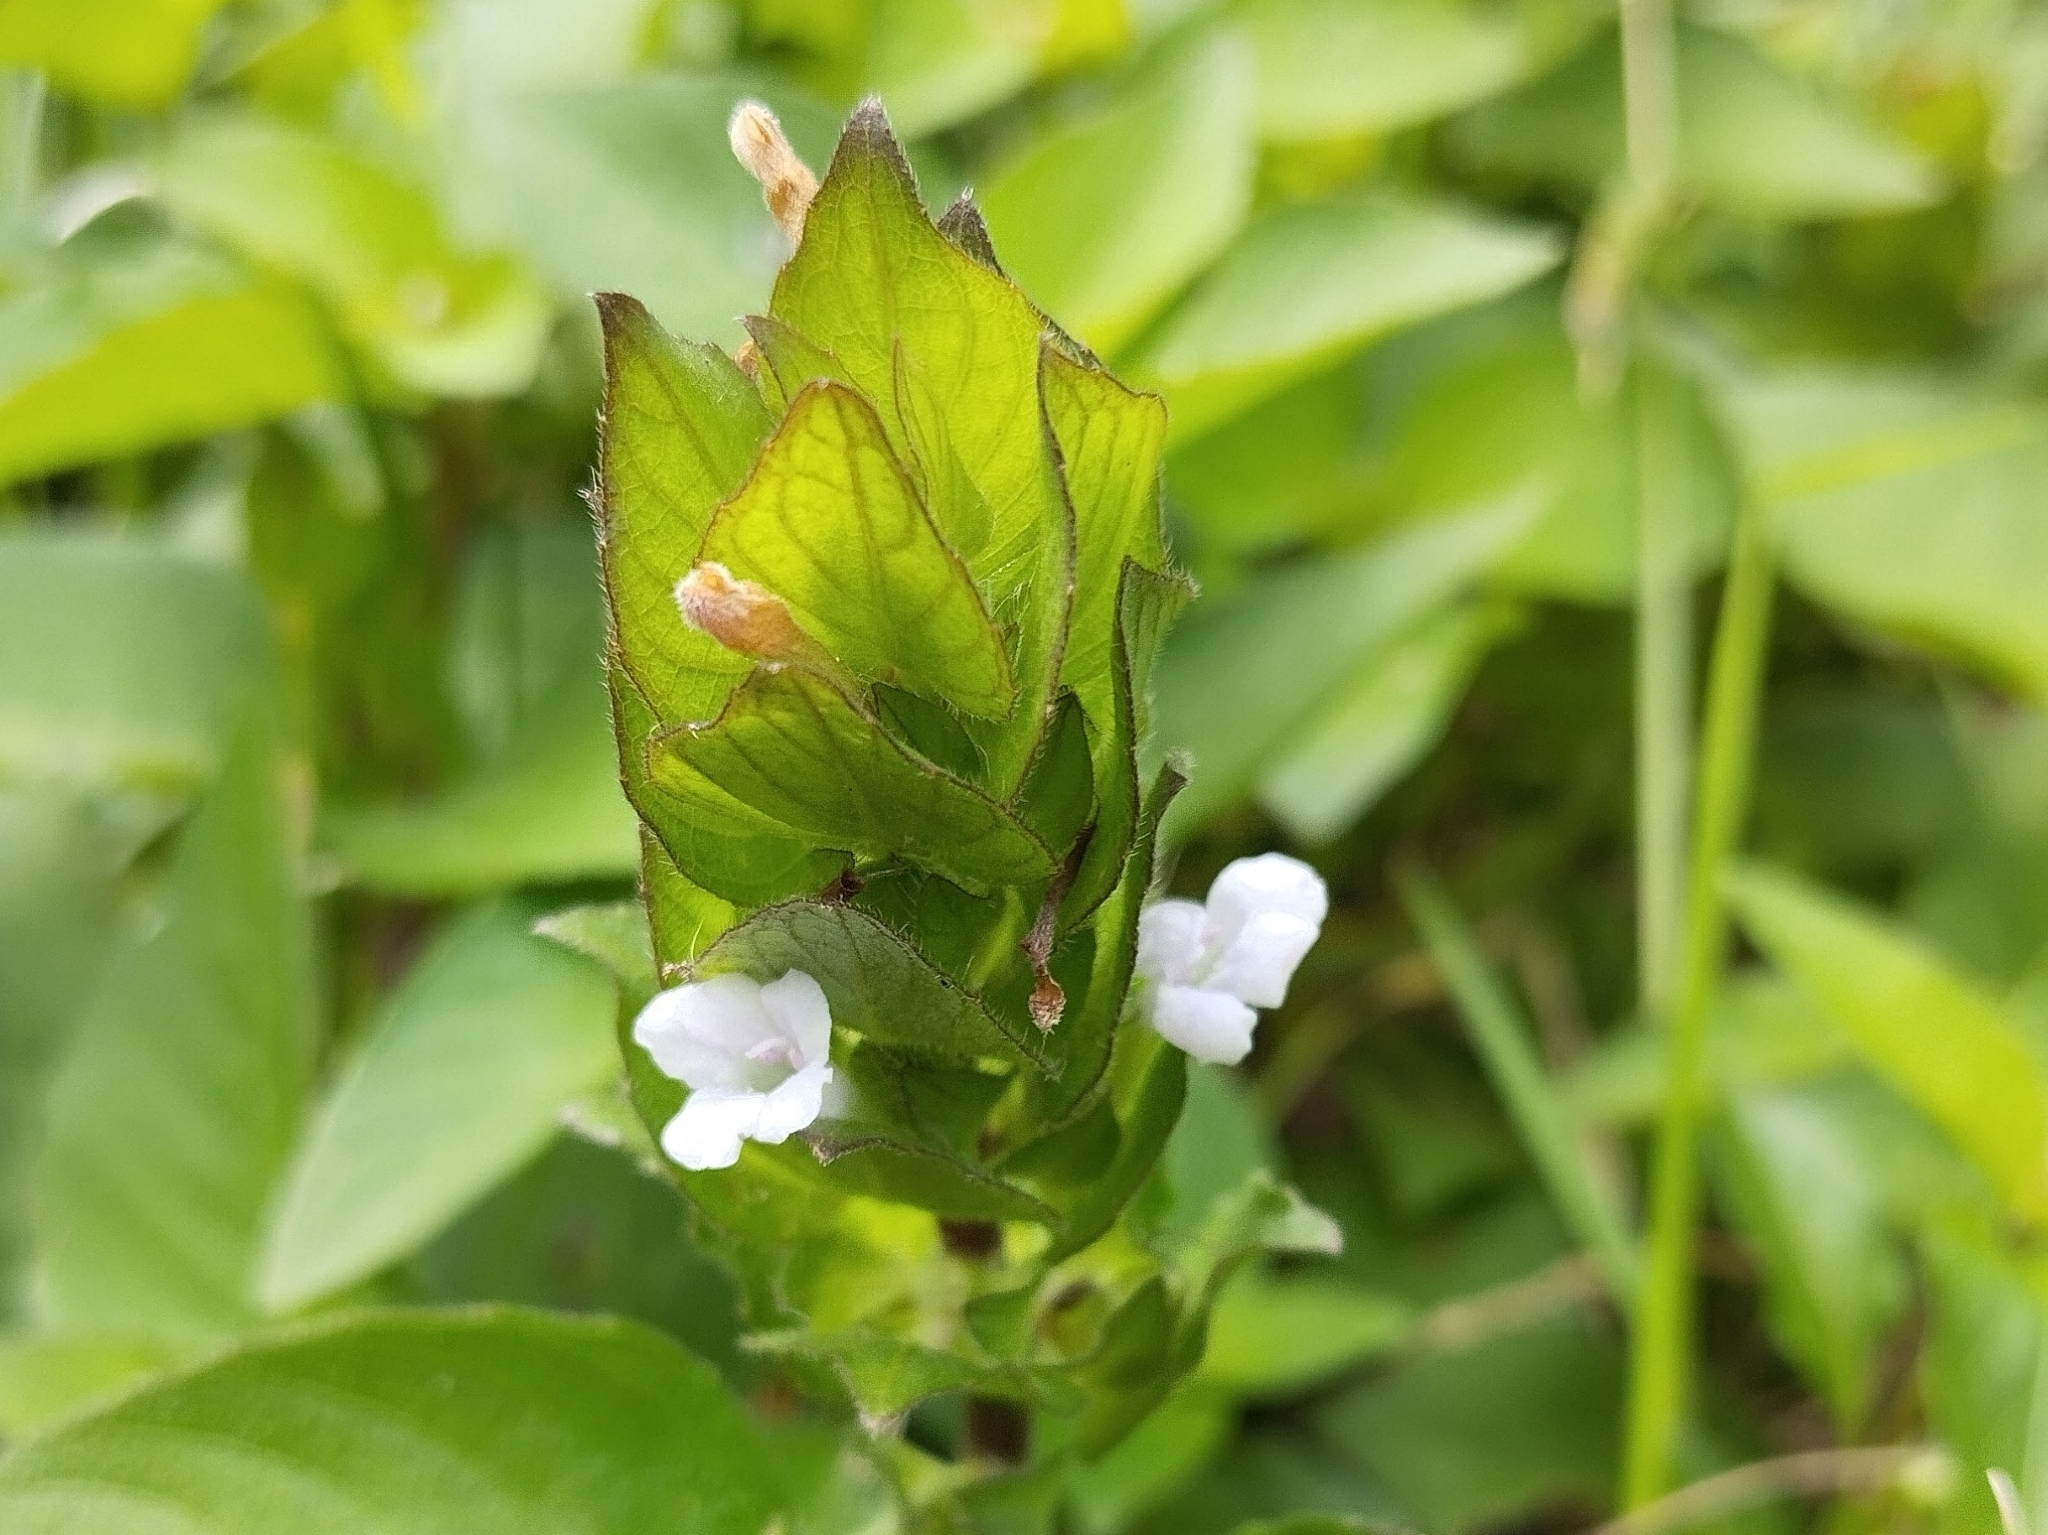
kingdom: Plantae
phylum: Tracheophyta
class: Magnoliopsida
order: Lamiales
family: Acanthaceae
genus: Ruellia
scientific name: Ruellia blechum
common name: Browne's blechum
